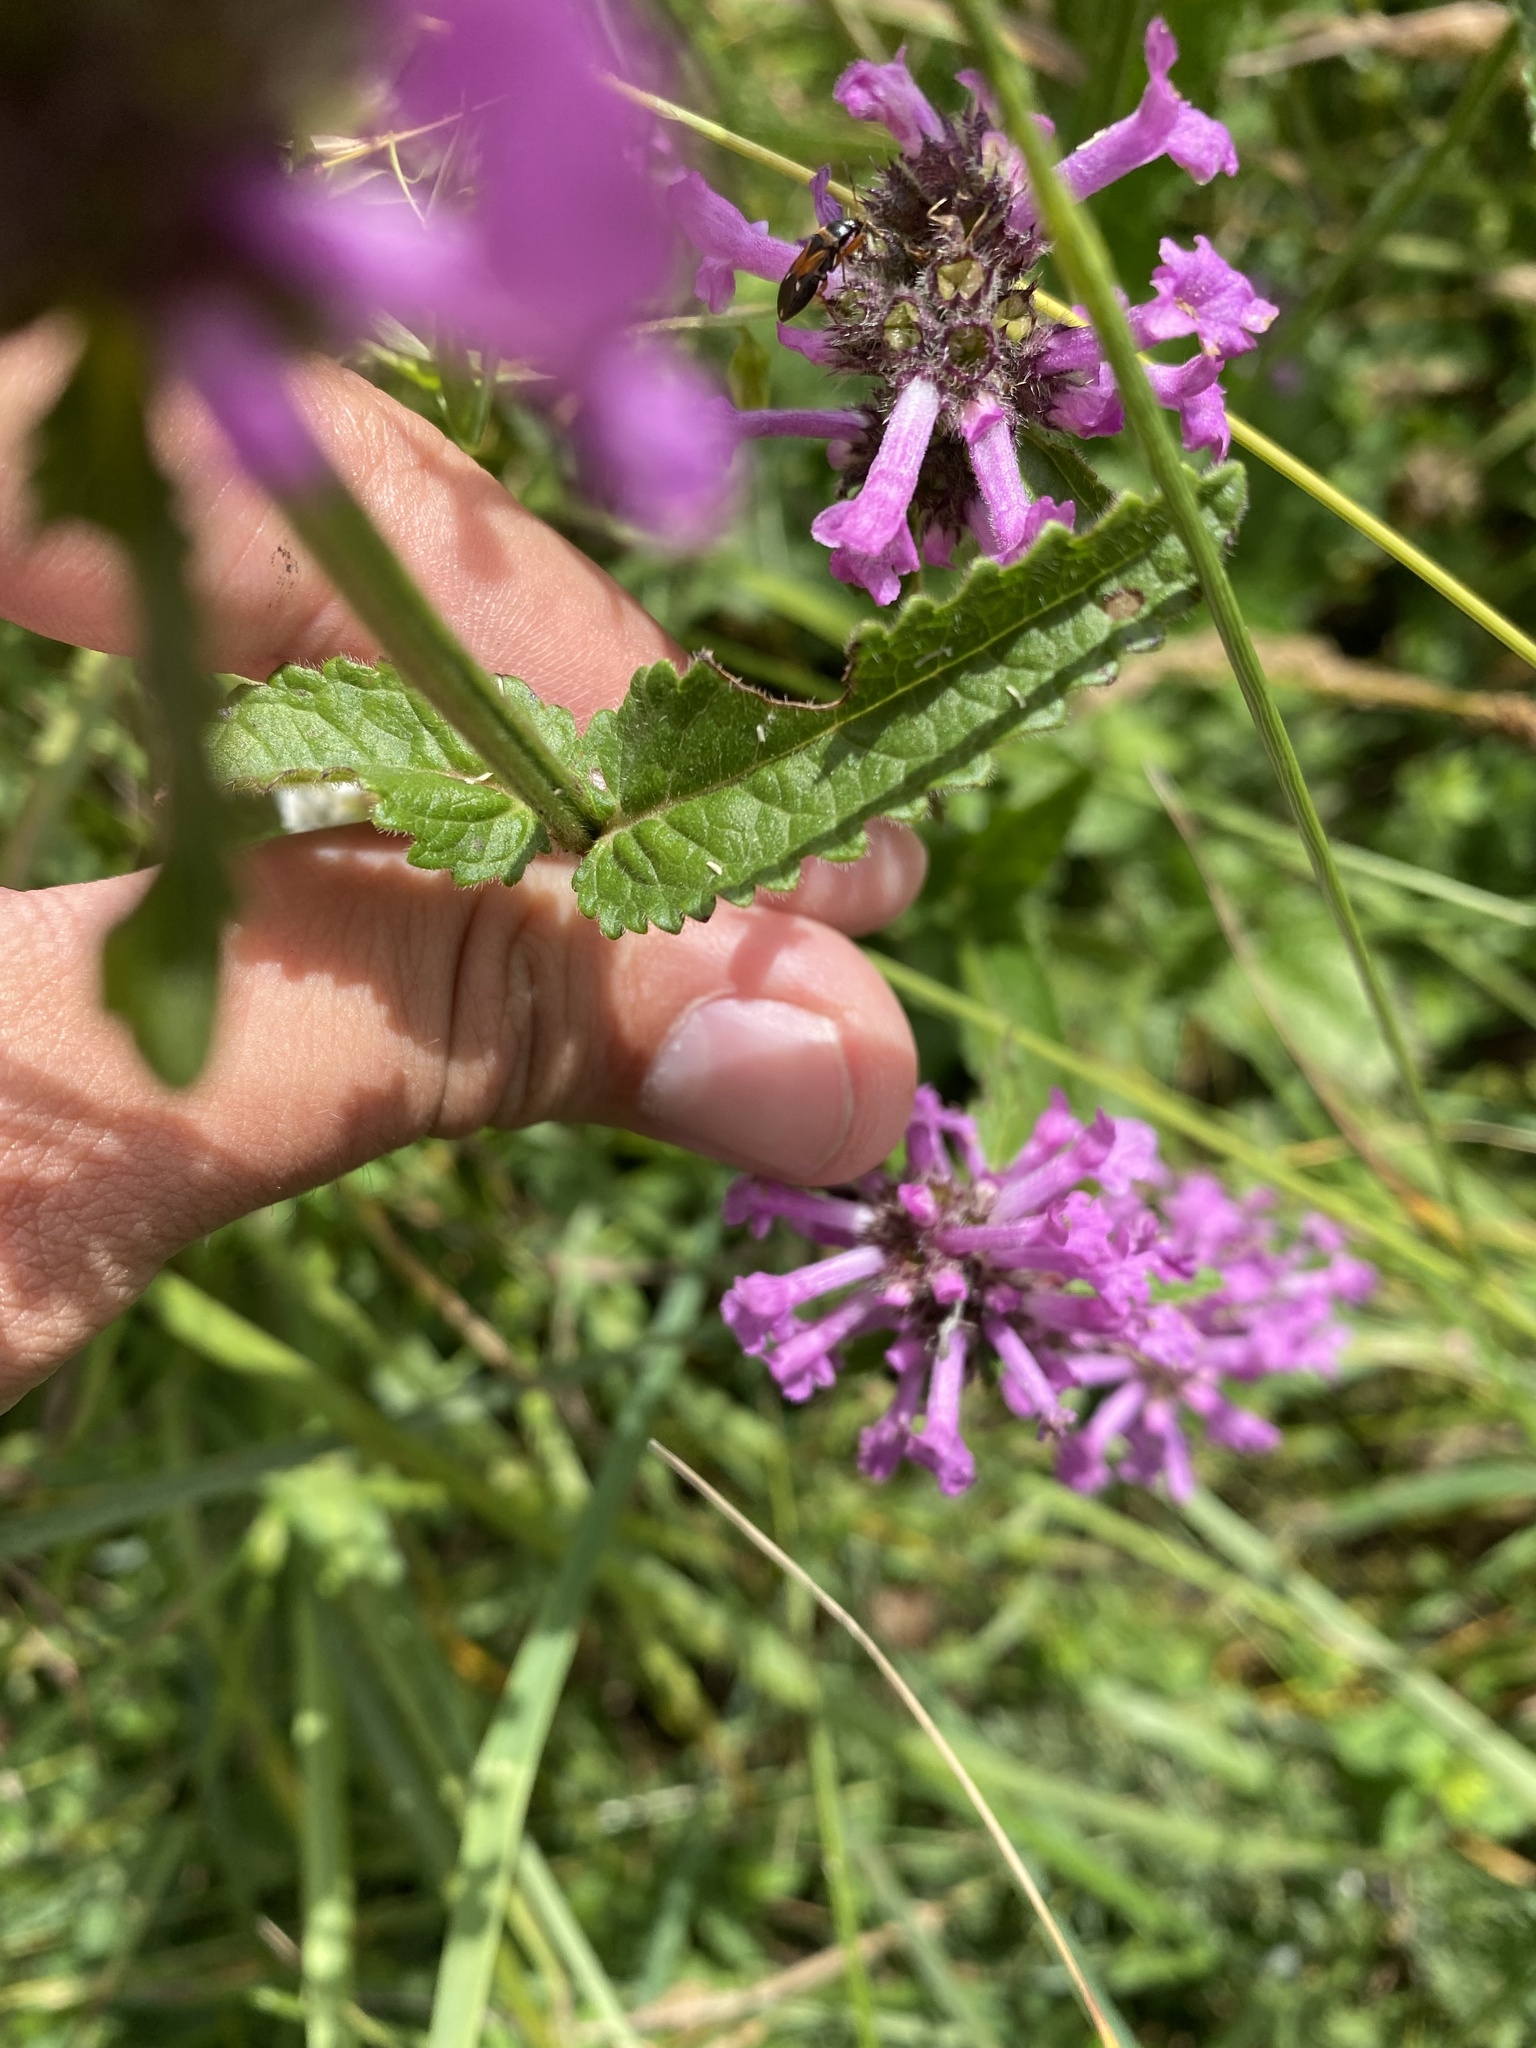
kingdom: Plantae
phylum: Tracheophyta
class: Magnoliopsida
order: Lamiales
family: Lamiaceae
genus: Betonica
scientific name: Betonica officinalis
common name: Bishop's-wort
